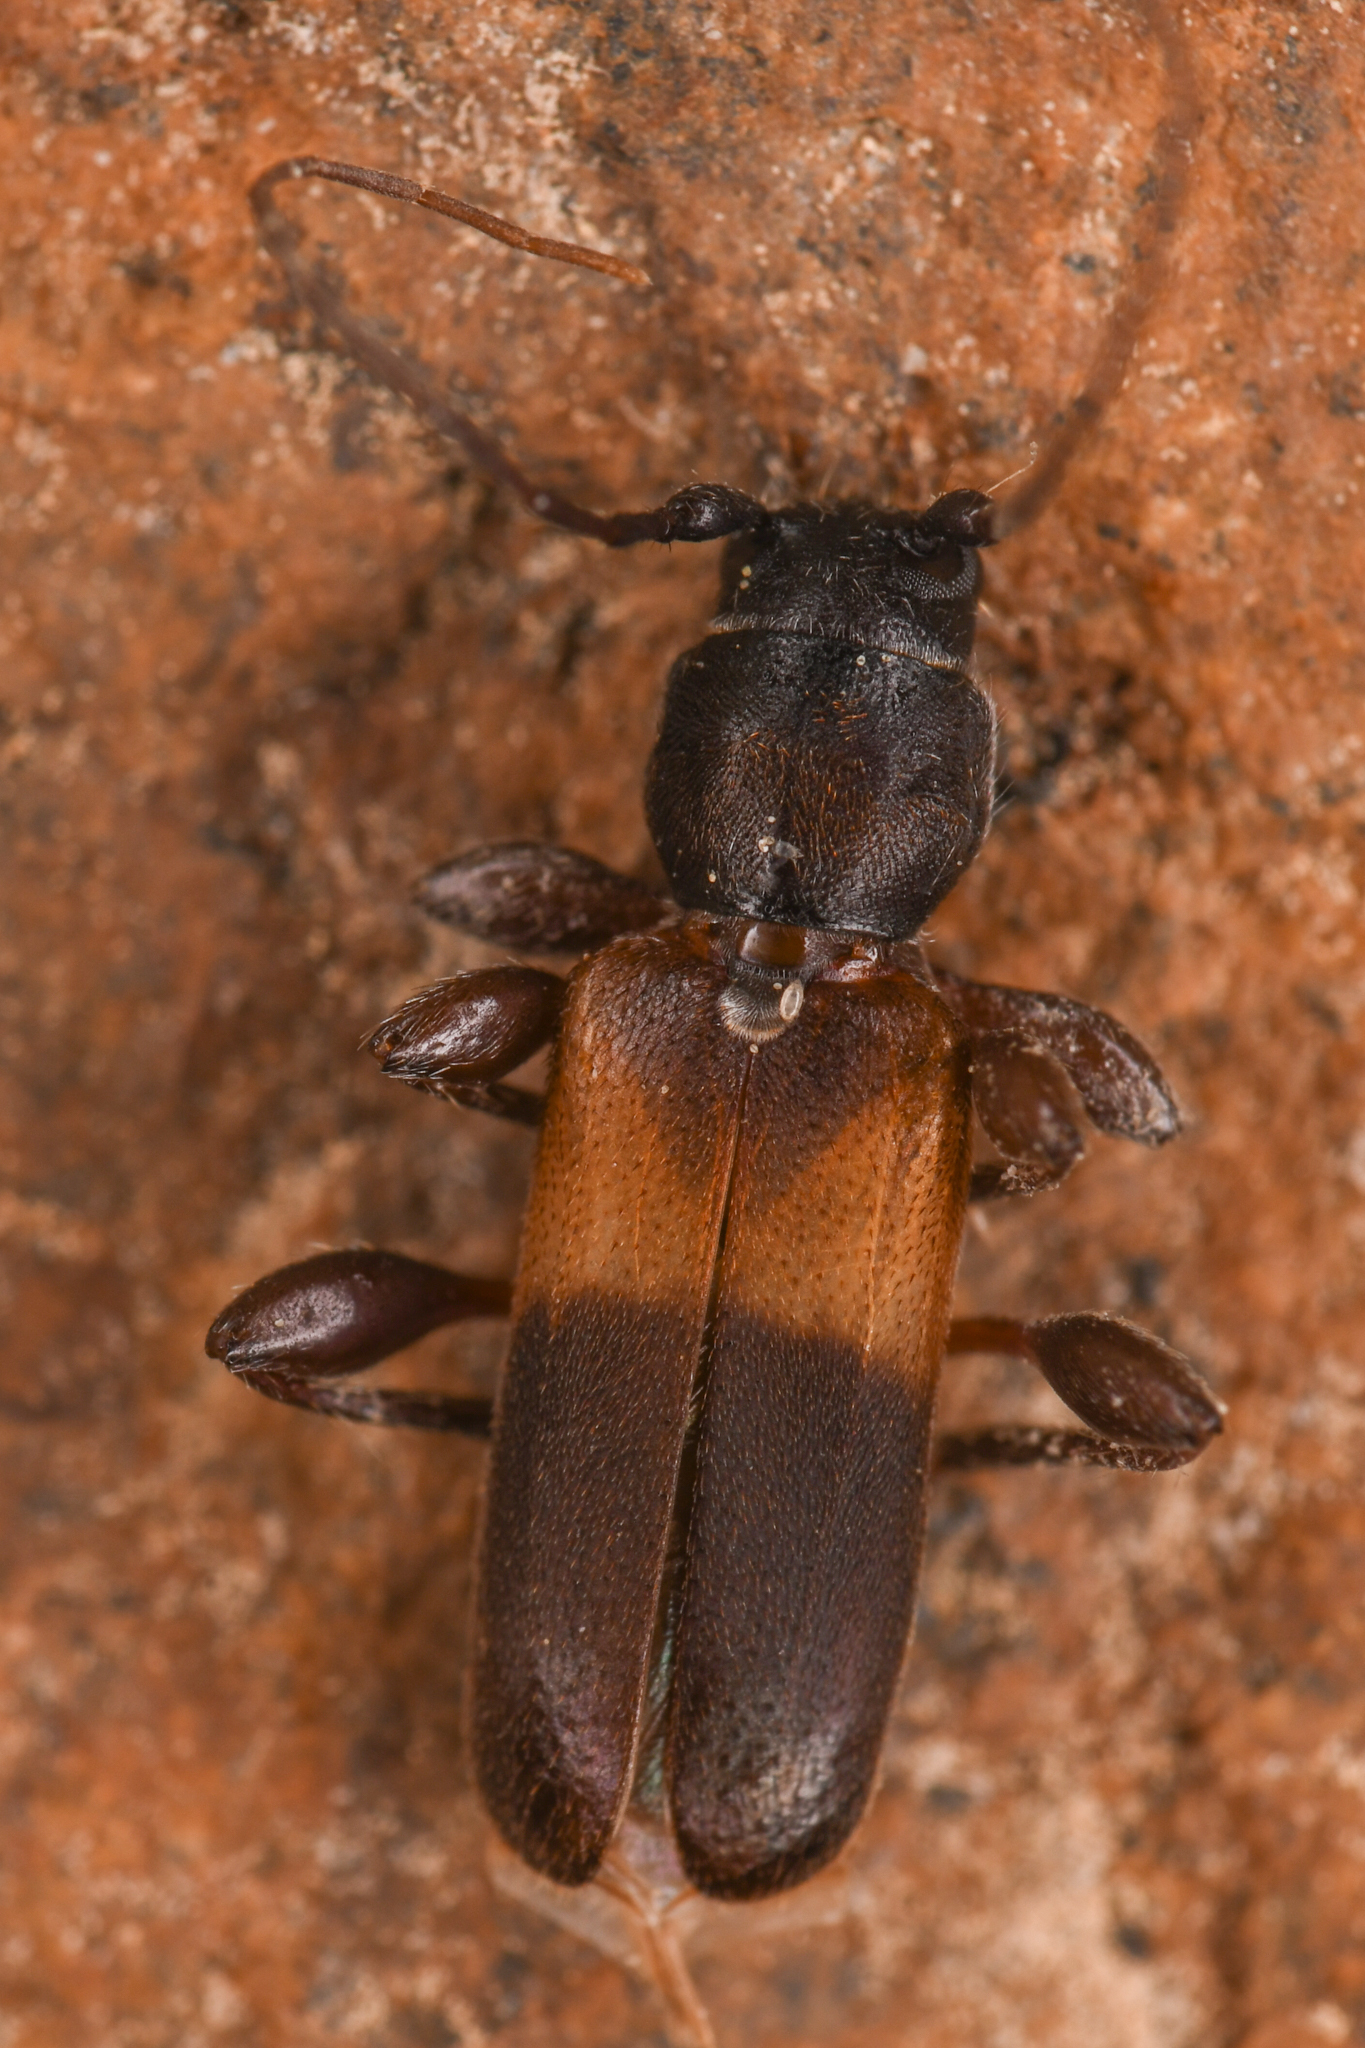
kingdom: Animalia
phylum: Arthropoda
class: Insecta
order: Coleoptera
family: Cerambycidae
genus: Phymatodes
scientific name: Phymatodes dimidiatus
